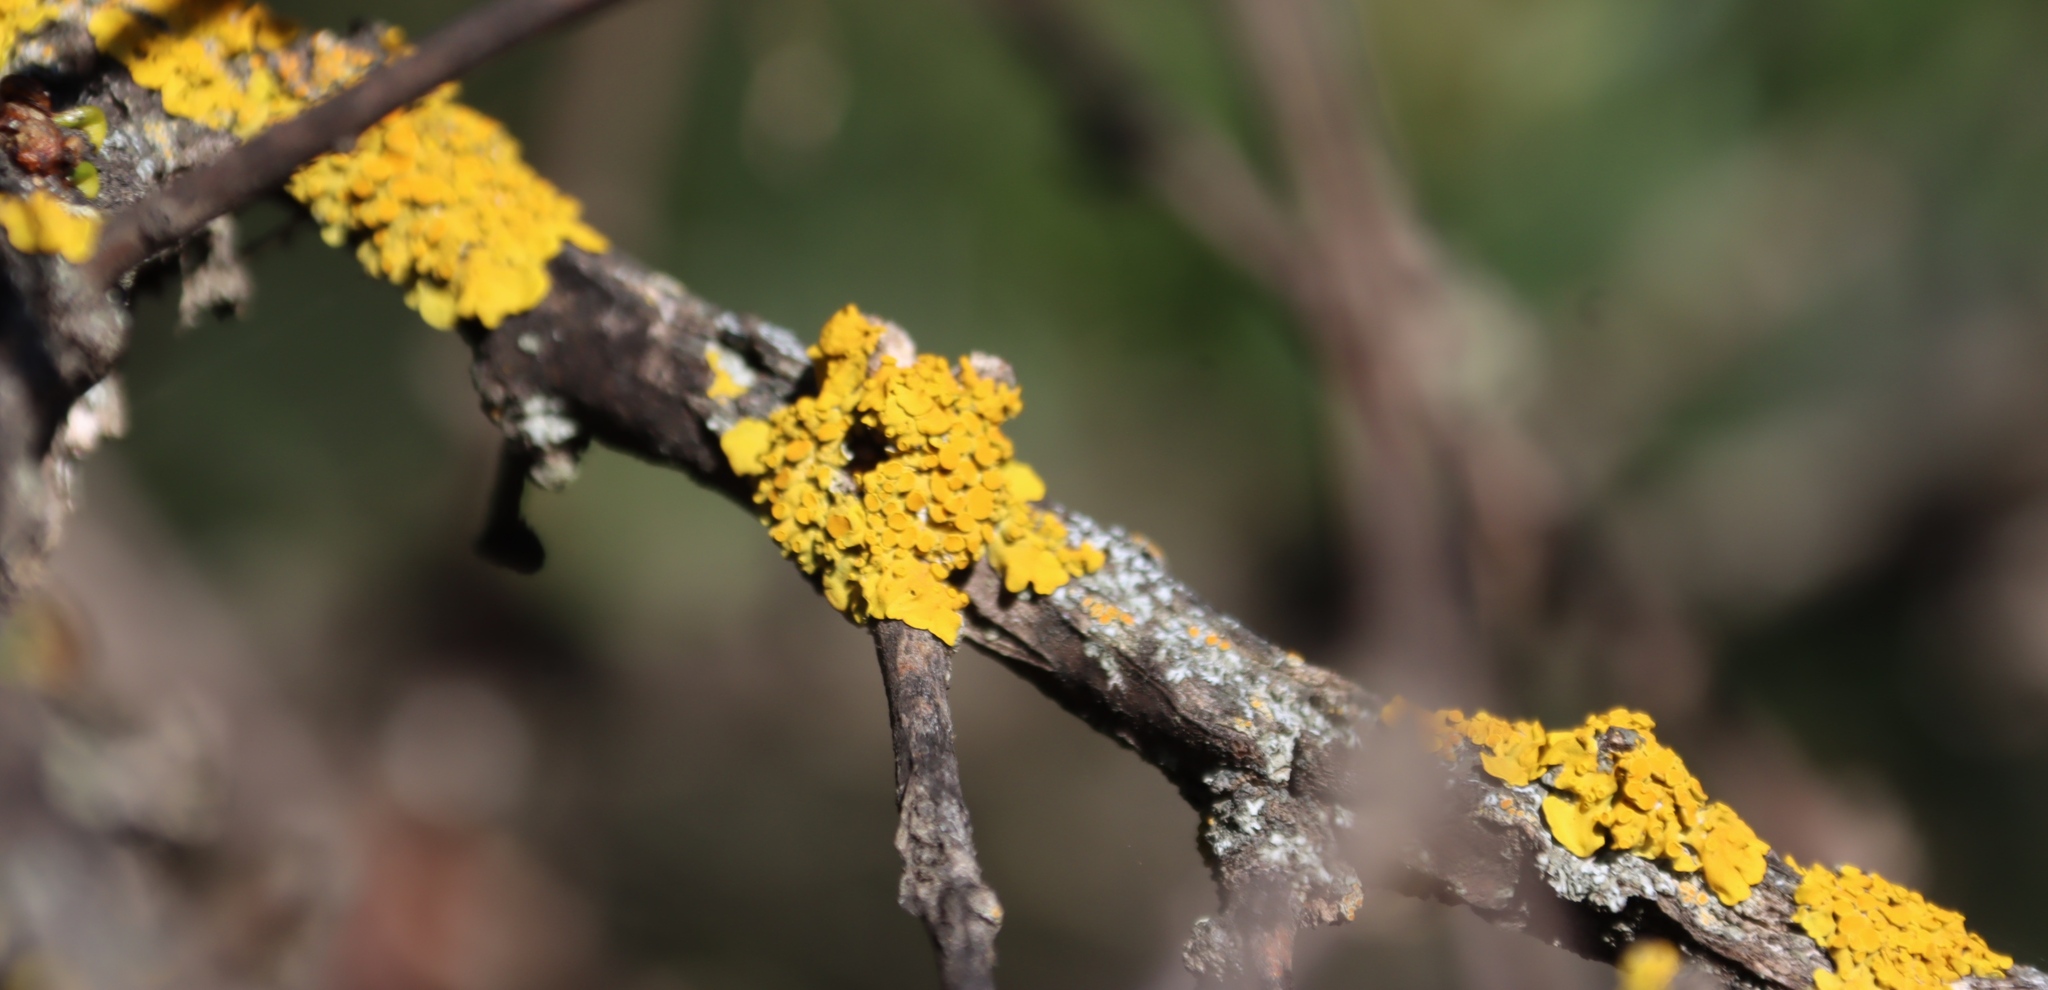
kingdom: Fungi
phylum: Ascomycota
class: Lecanoromycetes
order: Teloschistales
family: Teloschistaceae
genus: Xanthoria
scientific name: Xanthoria parietina
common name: Common orange lichen
